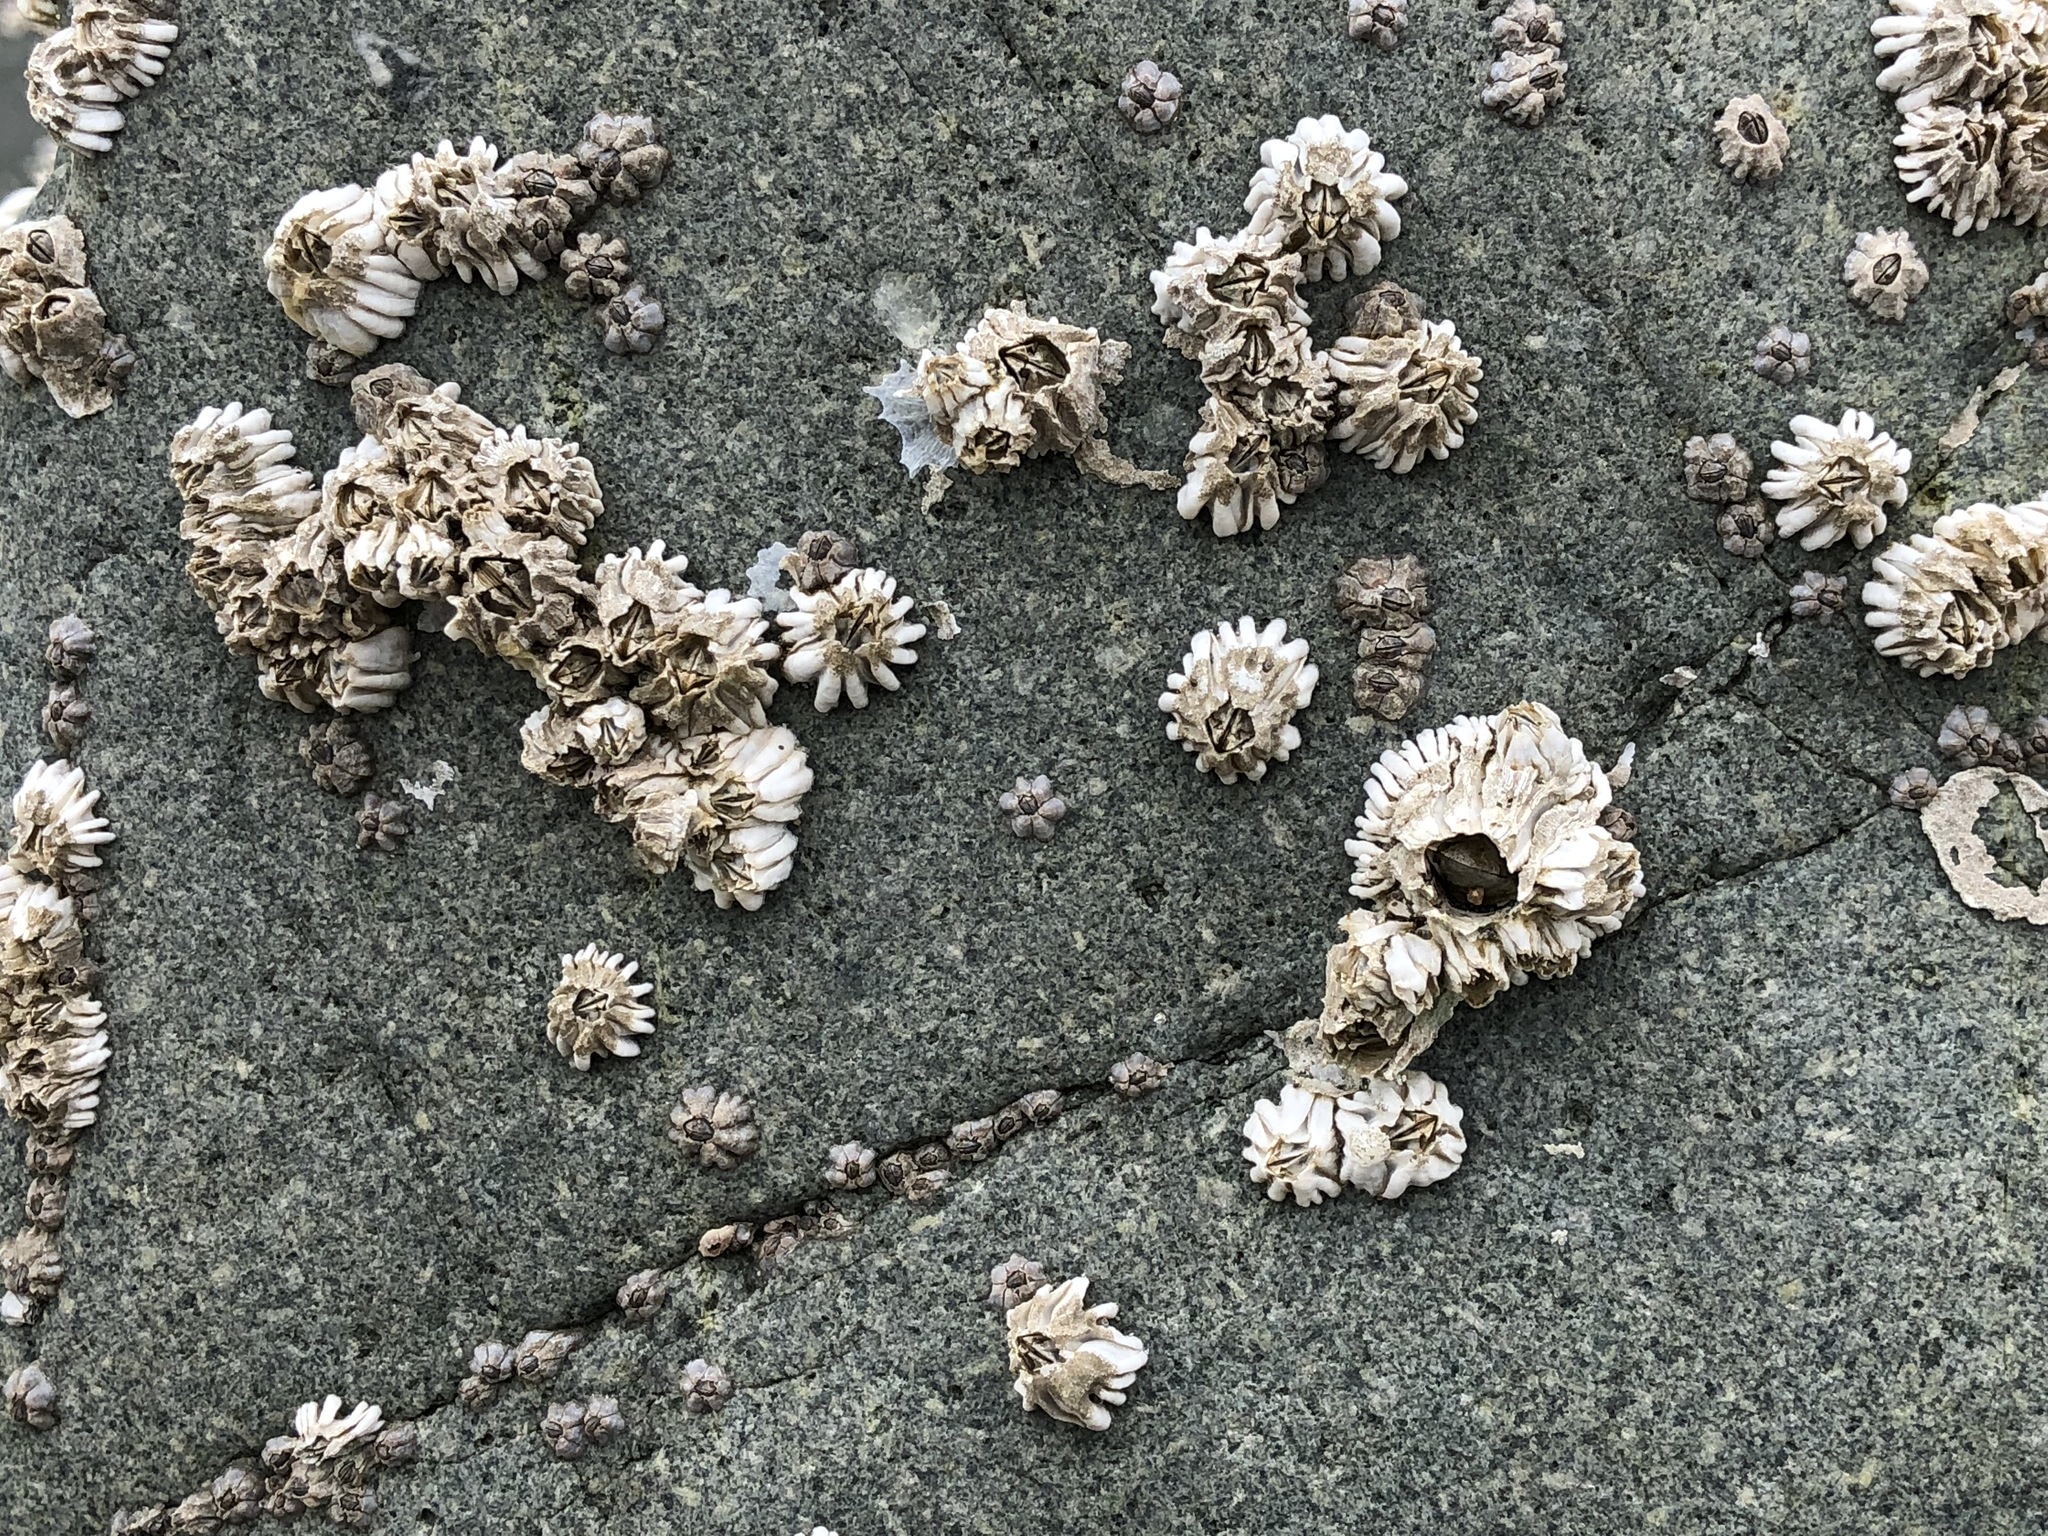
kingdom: Animalia
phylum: Arthropoda
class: Maxillopoda
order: Sessilia
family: Archaeobalanidae
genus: Semibalanus
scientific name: Semibalanus cariosus
